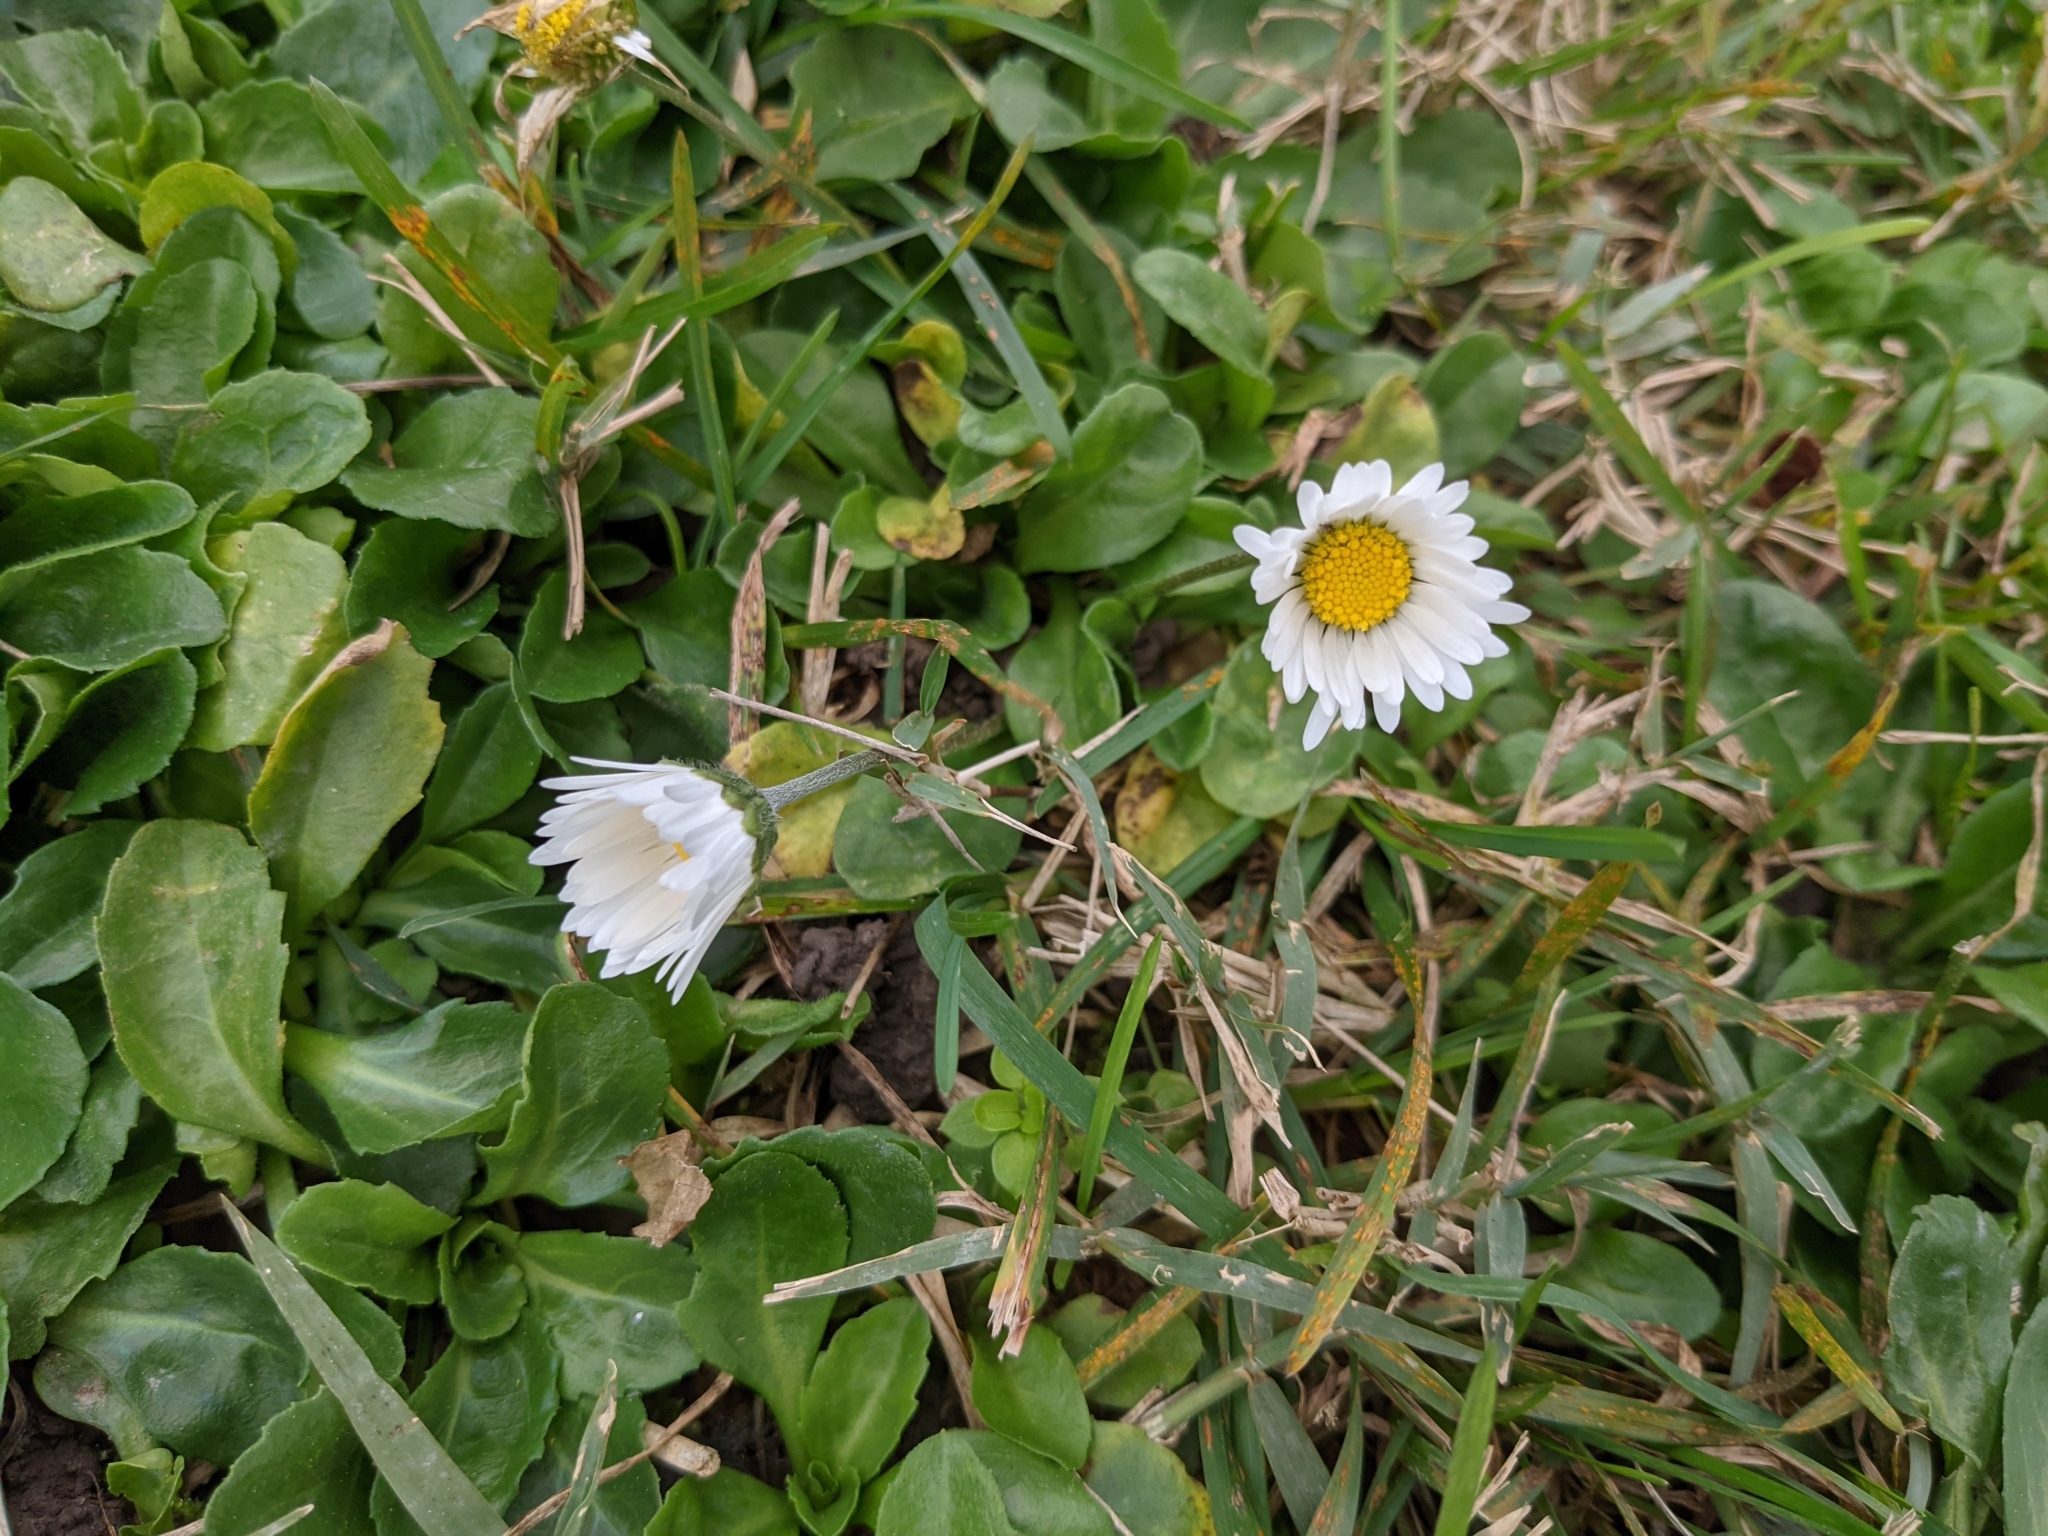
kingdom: Plantae
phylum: Tracheophyta
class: Magnoliopsida
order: Asterales
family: Asteraceae
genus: Bellis
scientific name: Bellis perennis
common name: Lawndaisy
